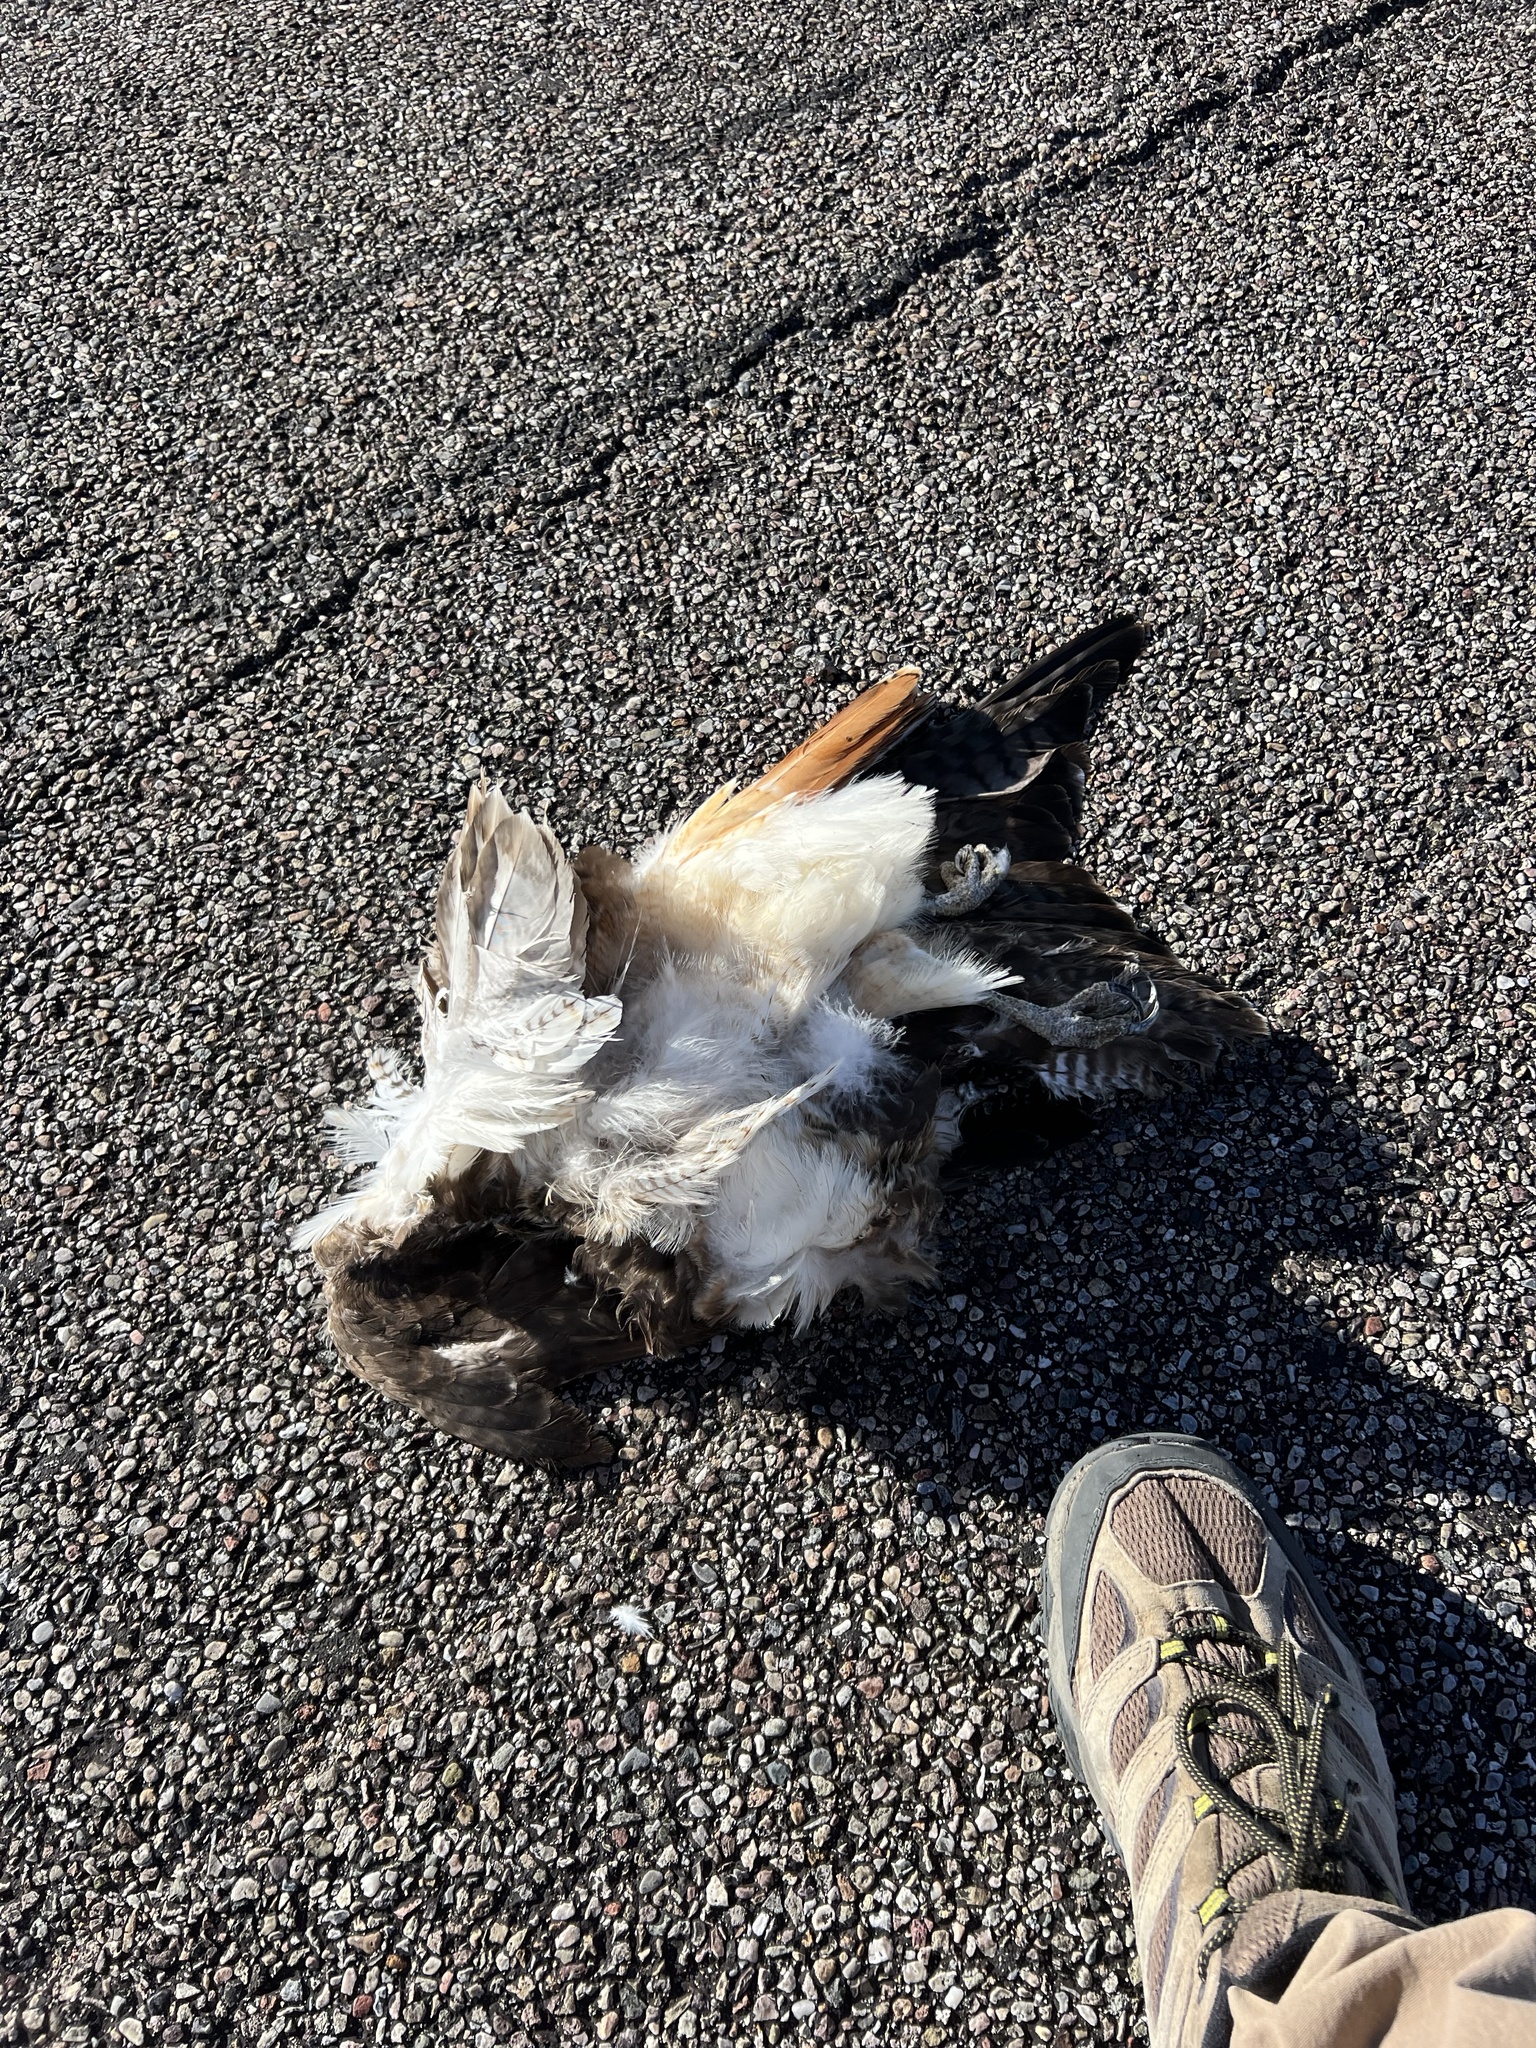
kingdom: Animalia
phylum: Chordata
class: Aves
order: Accipitriformes
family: Accipitridae
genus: Buteo
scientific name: Buteo jamaicensis
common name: Red-tailed hawk
